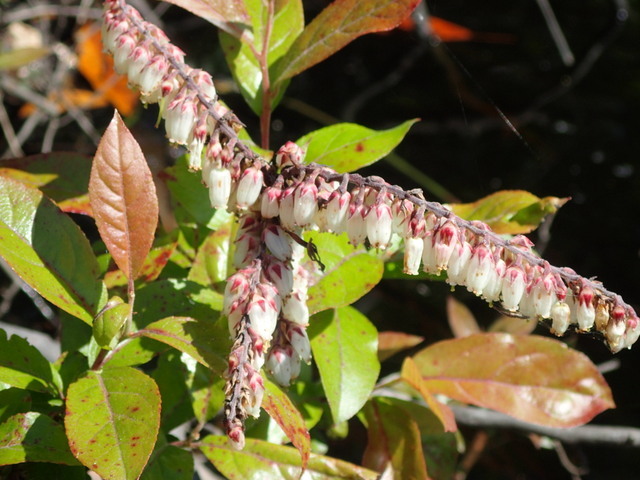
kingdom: Plantae
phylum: Tracheophyta
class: Magnoliopsida
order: Ericales
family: Ericaceae
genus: Eubotrys
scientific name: Eubotrys racemosa
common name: Fetterbush
